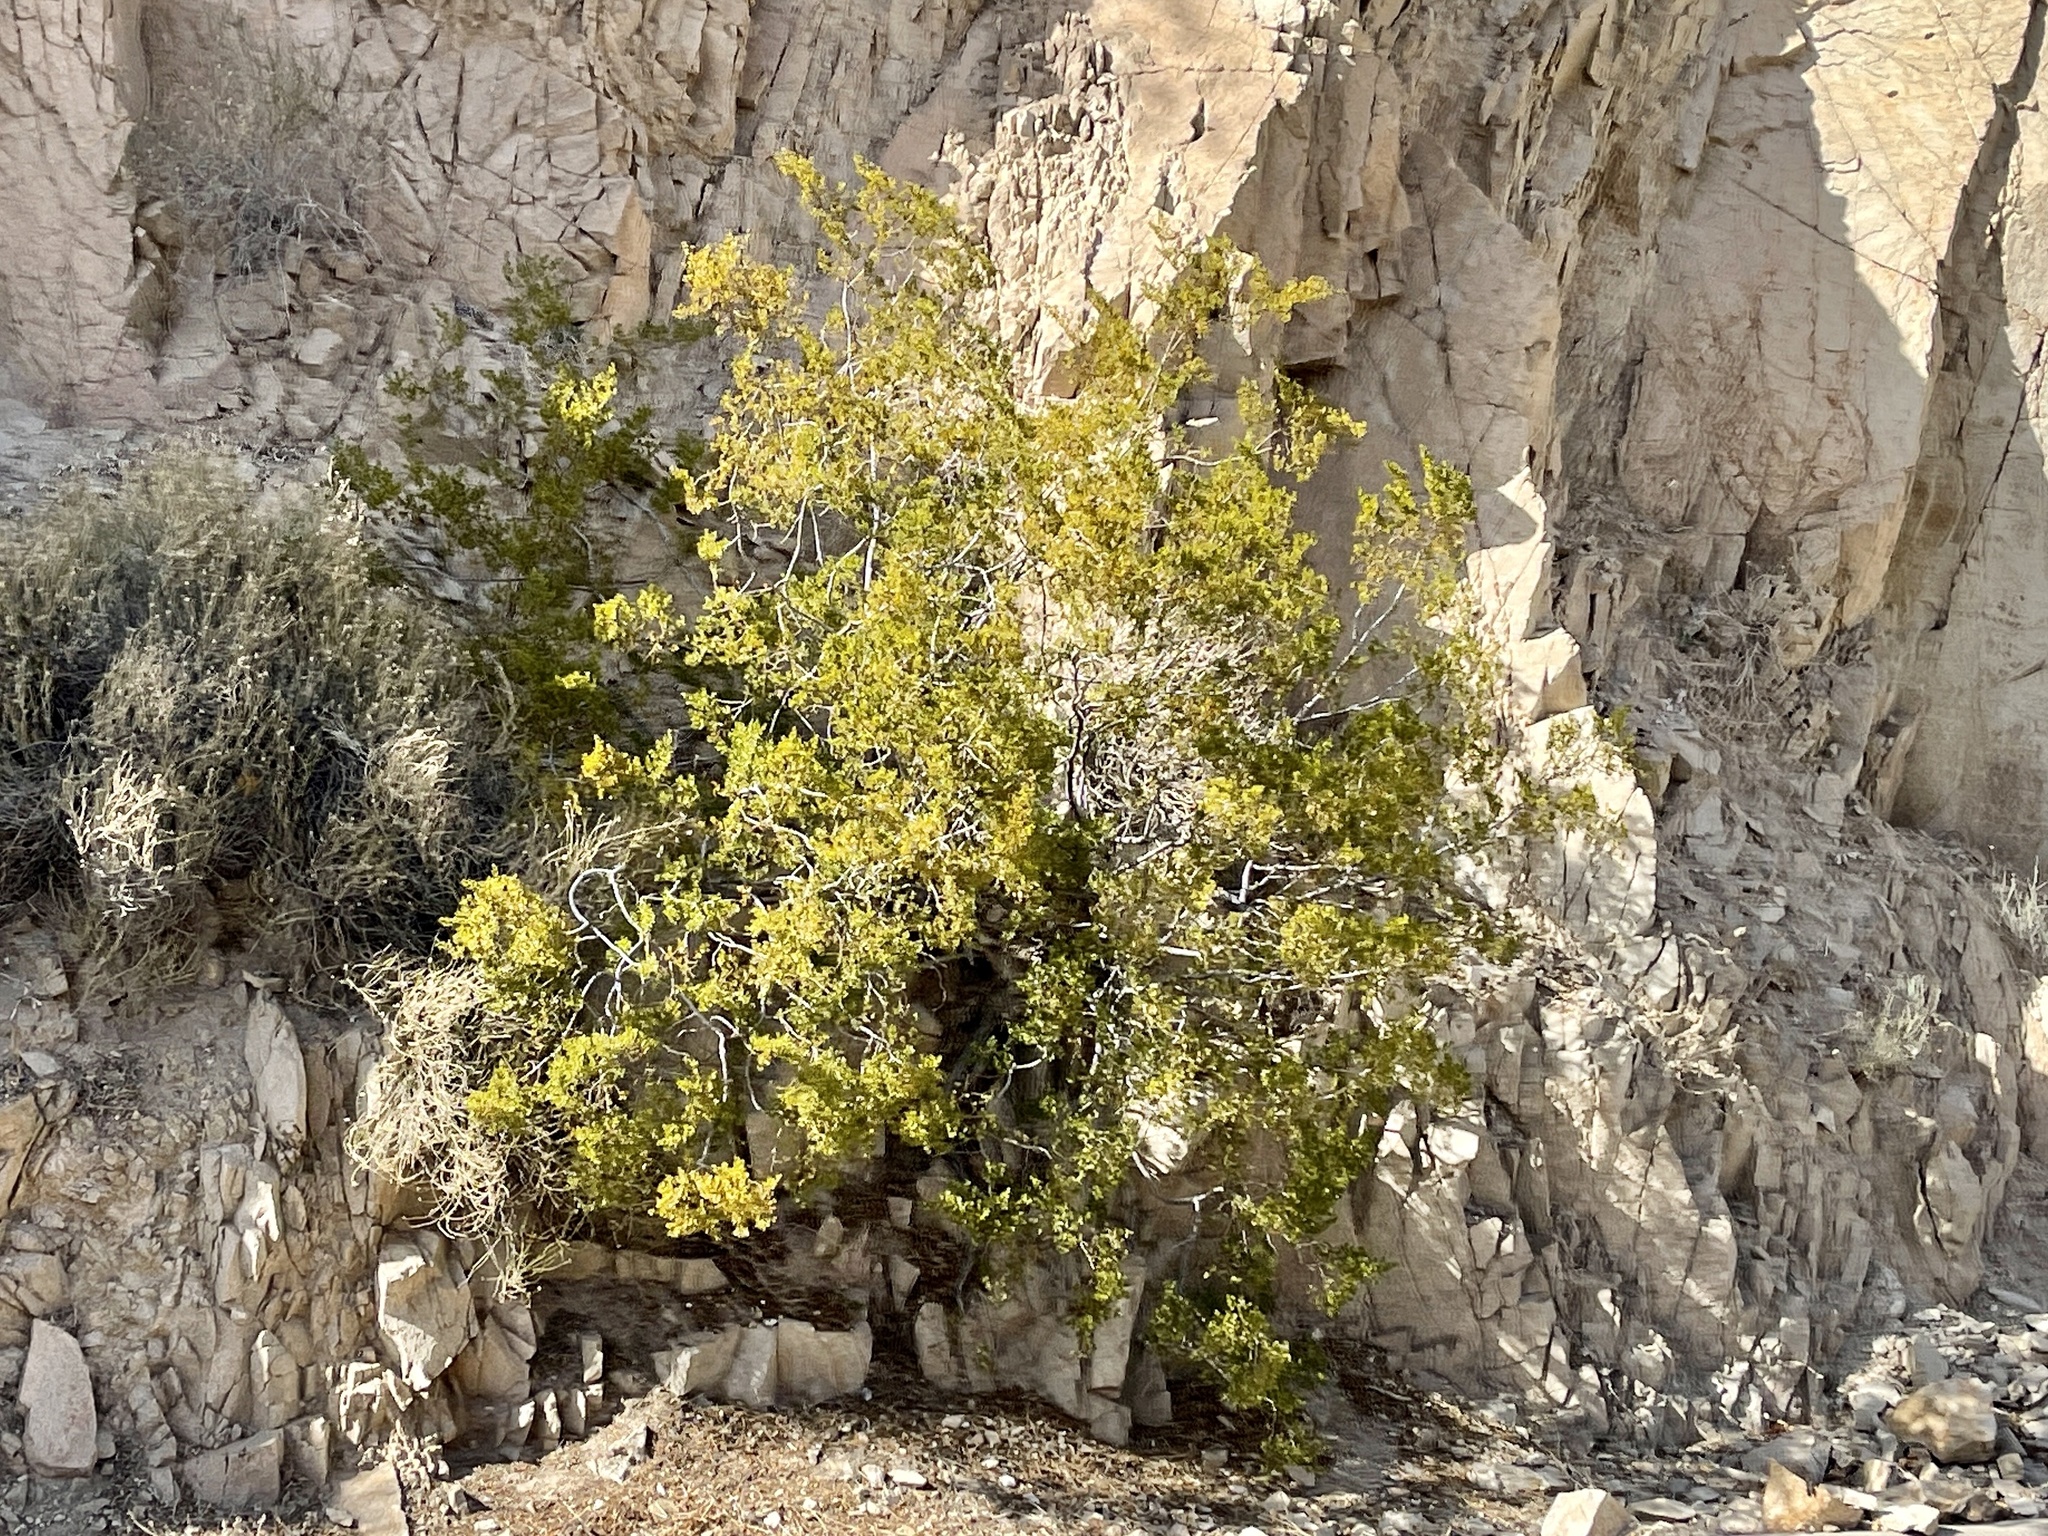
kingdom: Plantae
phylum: Tracheophyta
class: Magnoliopsida
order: Zygophyllales
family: Zygophyllaceae
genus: Larrea
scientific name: Larrea tridentata
